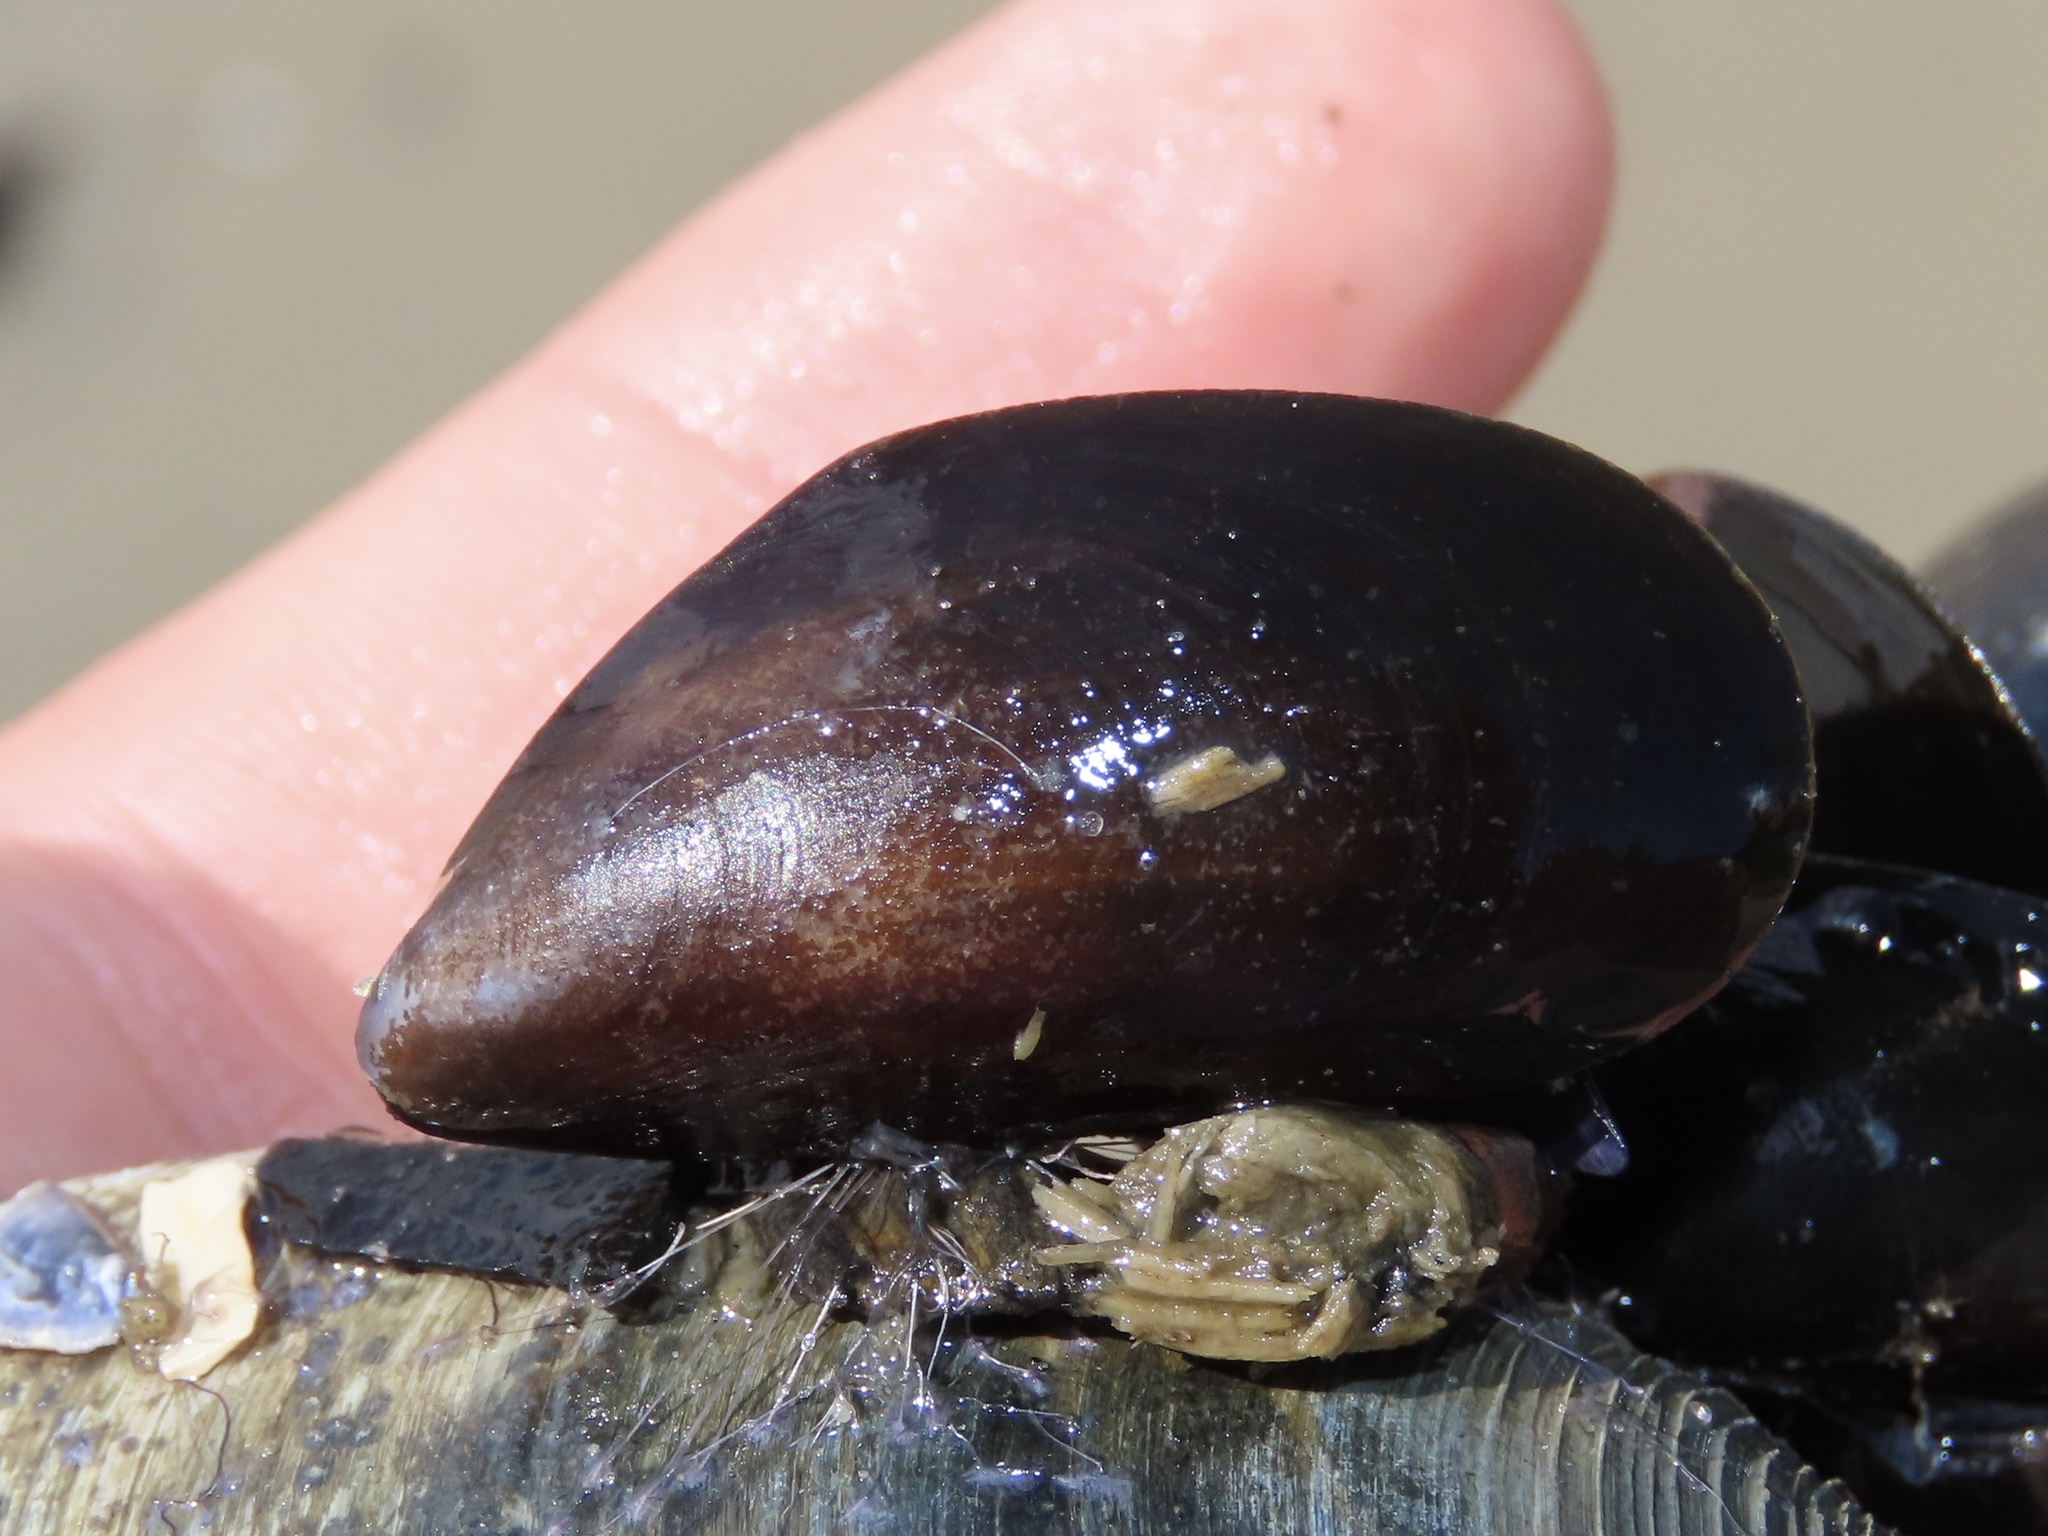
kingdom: Animalia
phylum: Mollusca
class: Bivalvia
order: Mytilida
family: Mytilidae
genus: Mytilus
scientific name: Mytilus edulis
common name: Blue mussel
